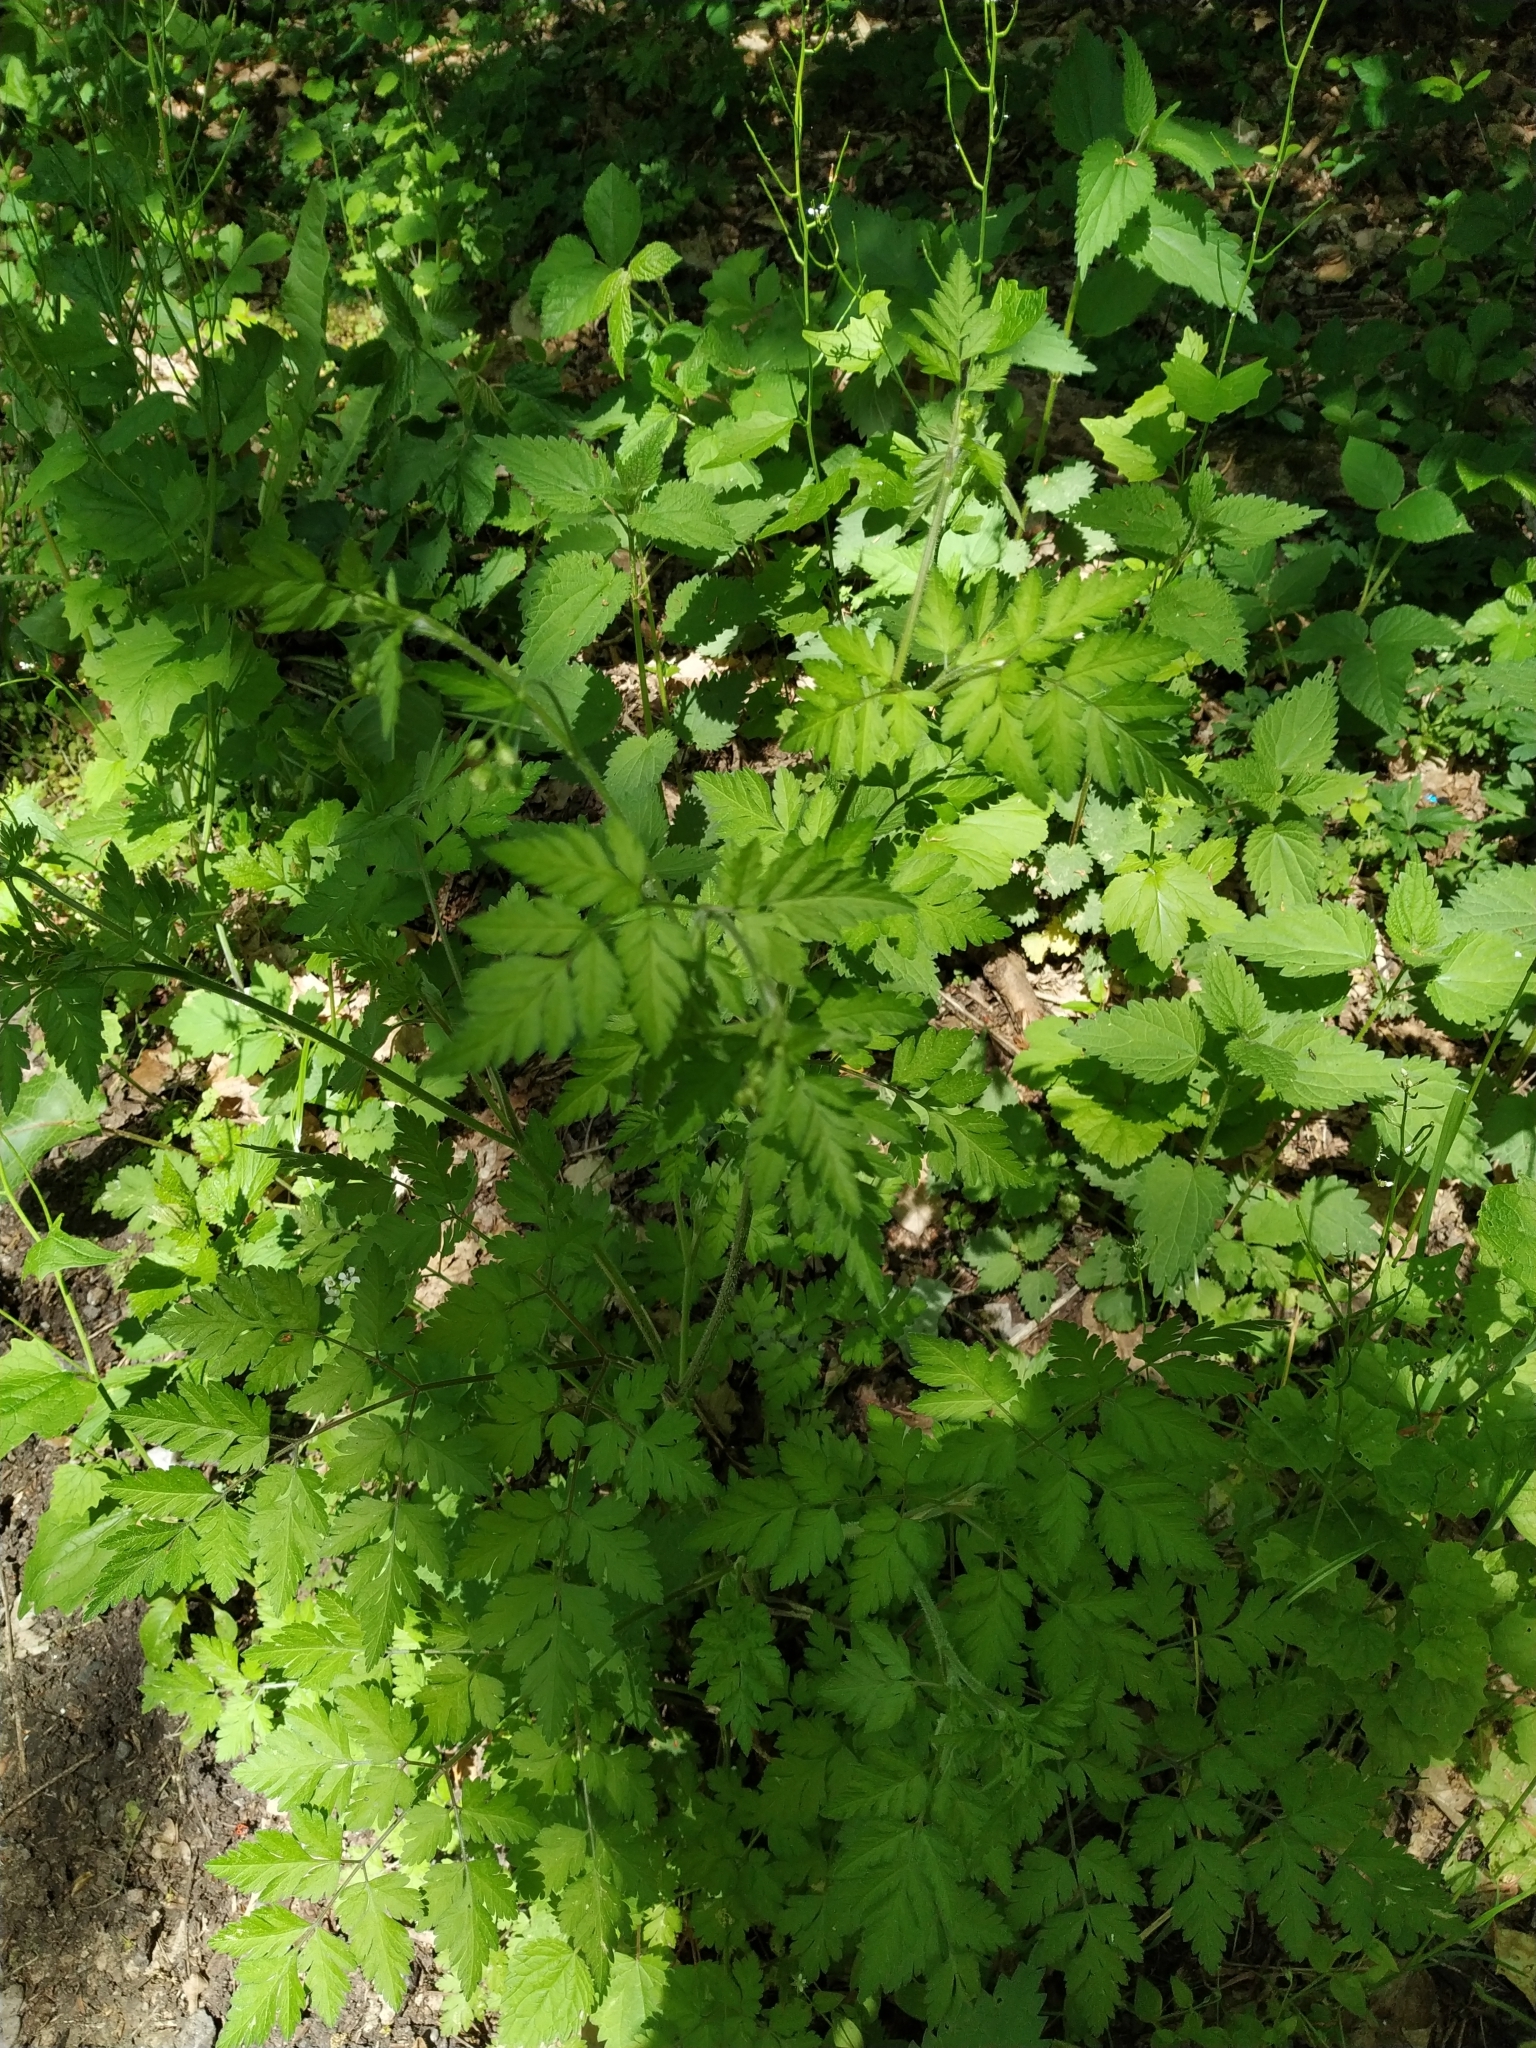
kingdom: Plantae
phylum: Tracheophyta
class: Magnoliopsida
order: Apiales
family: Apiaceae
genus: Chaerophyllum
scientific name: Chaerophyllum temulum
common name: Rough chervil
